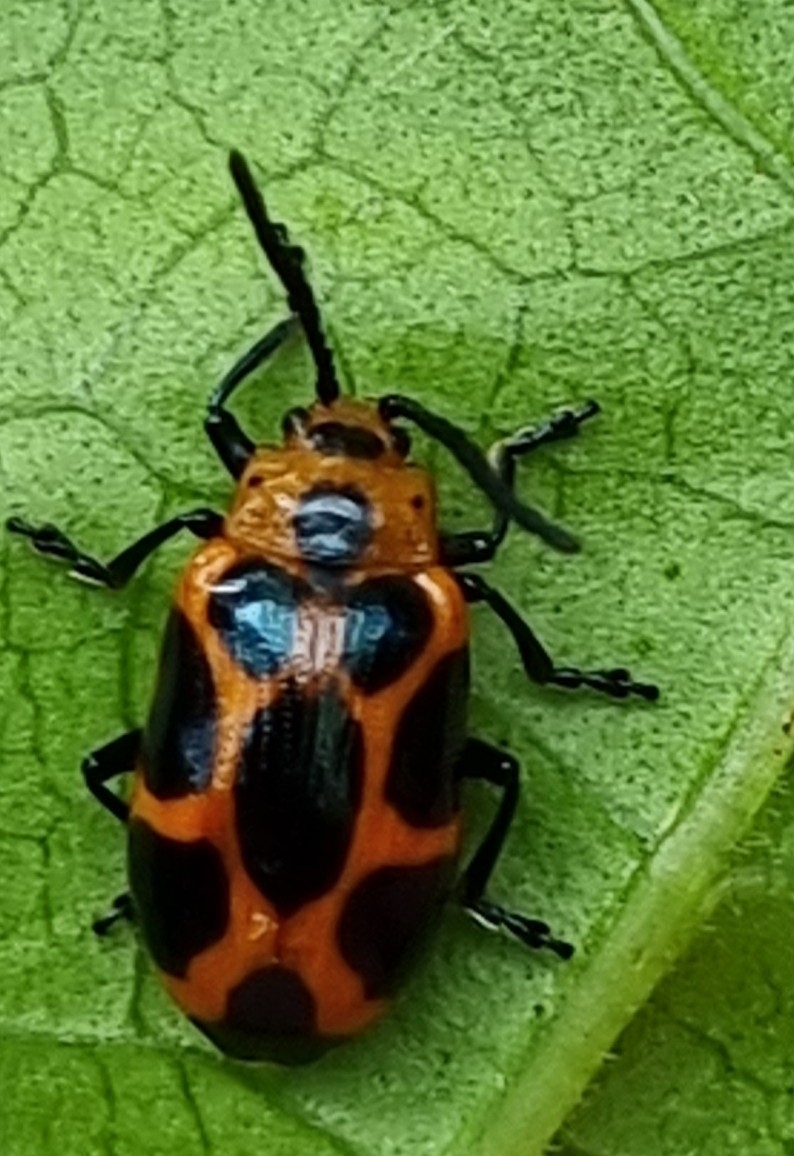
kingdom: Animalia
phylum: Arthropoda
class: Insecta
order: Coleoptera
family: Chrysomelidae
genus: Phyllocharis
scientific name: Phyllocharis
